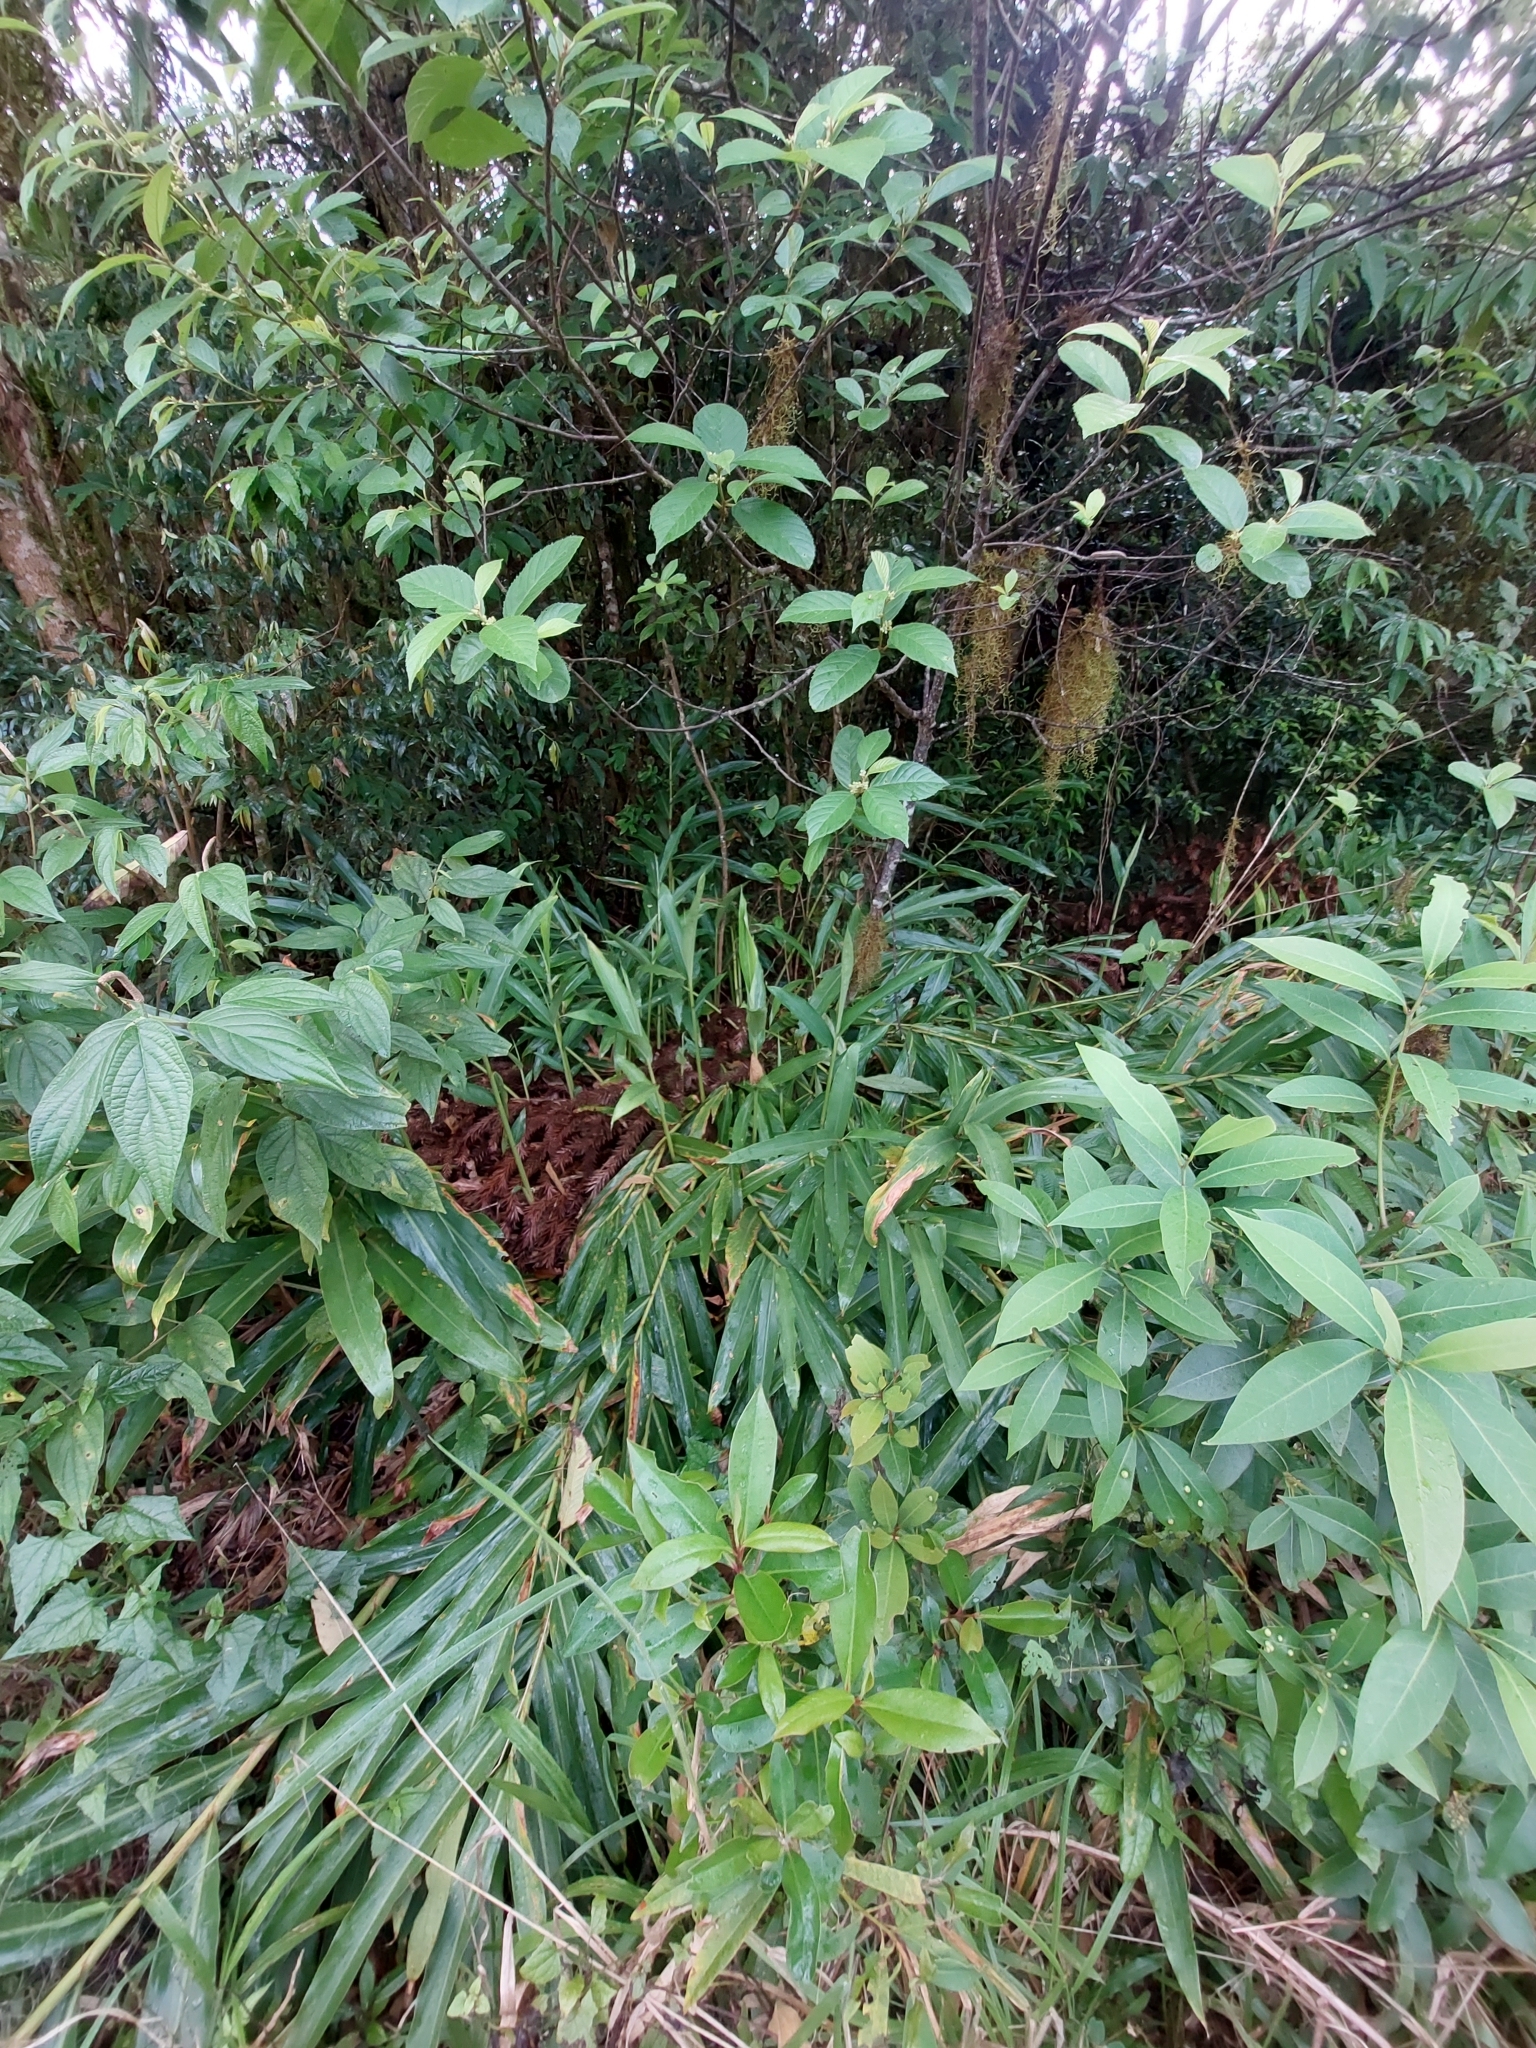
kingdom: Plantae
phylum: Tracheophyta
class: Liliopsida
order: Zingiberales
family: Zingiberaceae
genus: Hedychium
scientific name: Hedychium coronarium
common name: White garland-lily
